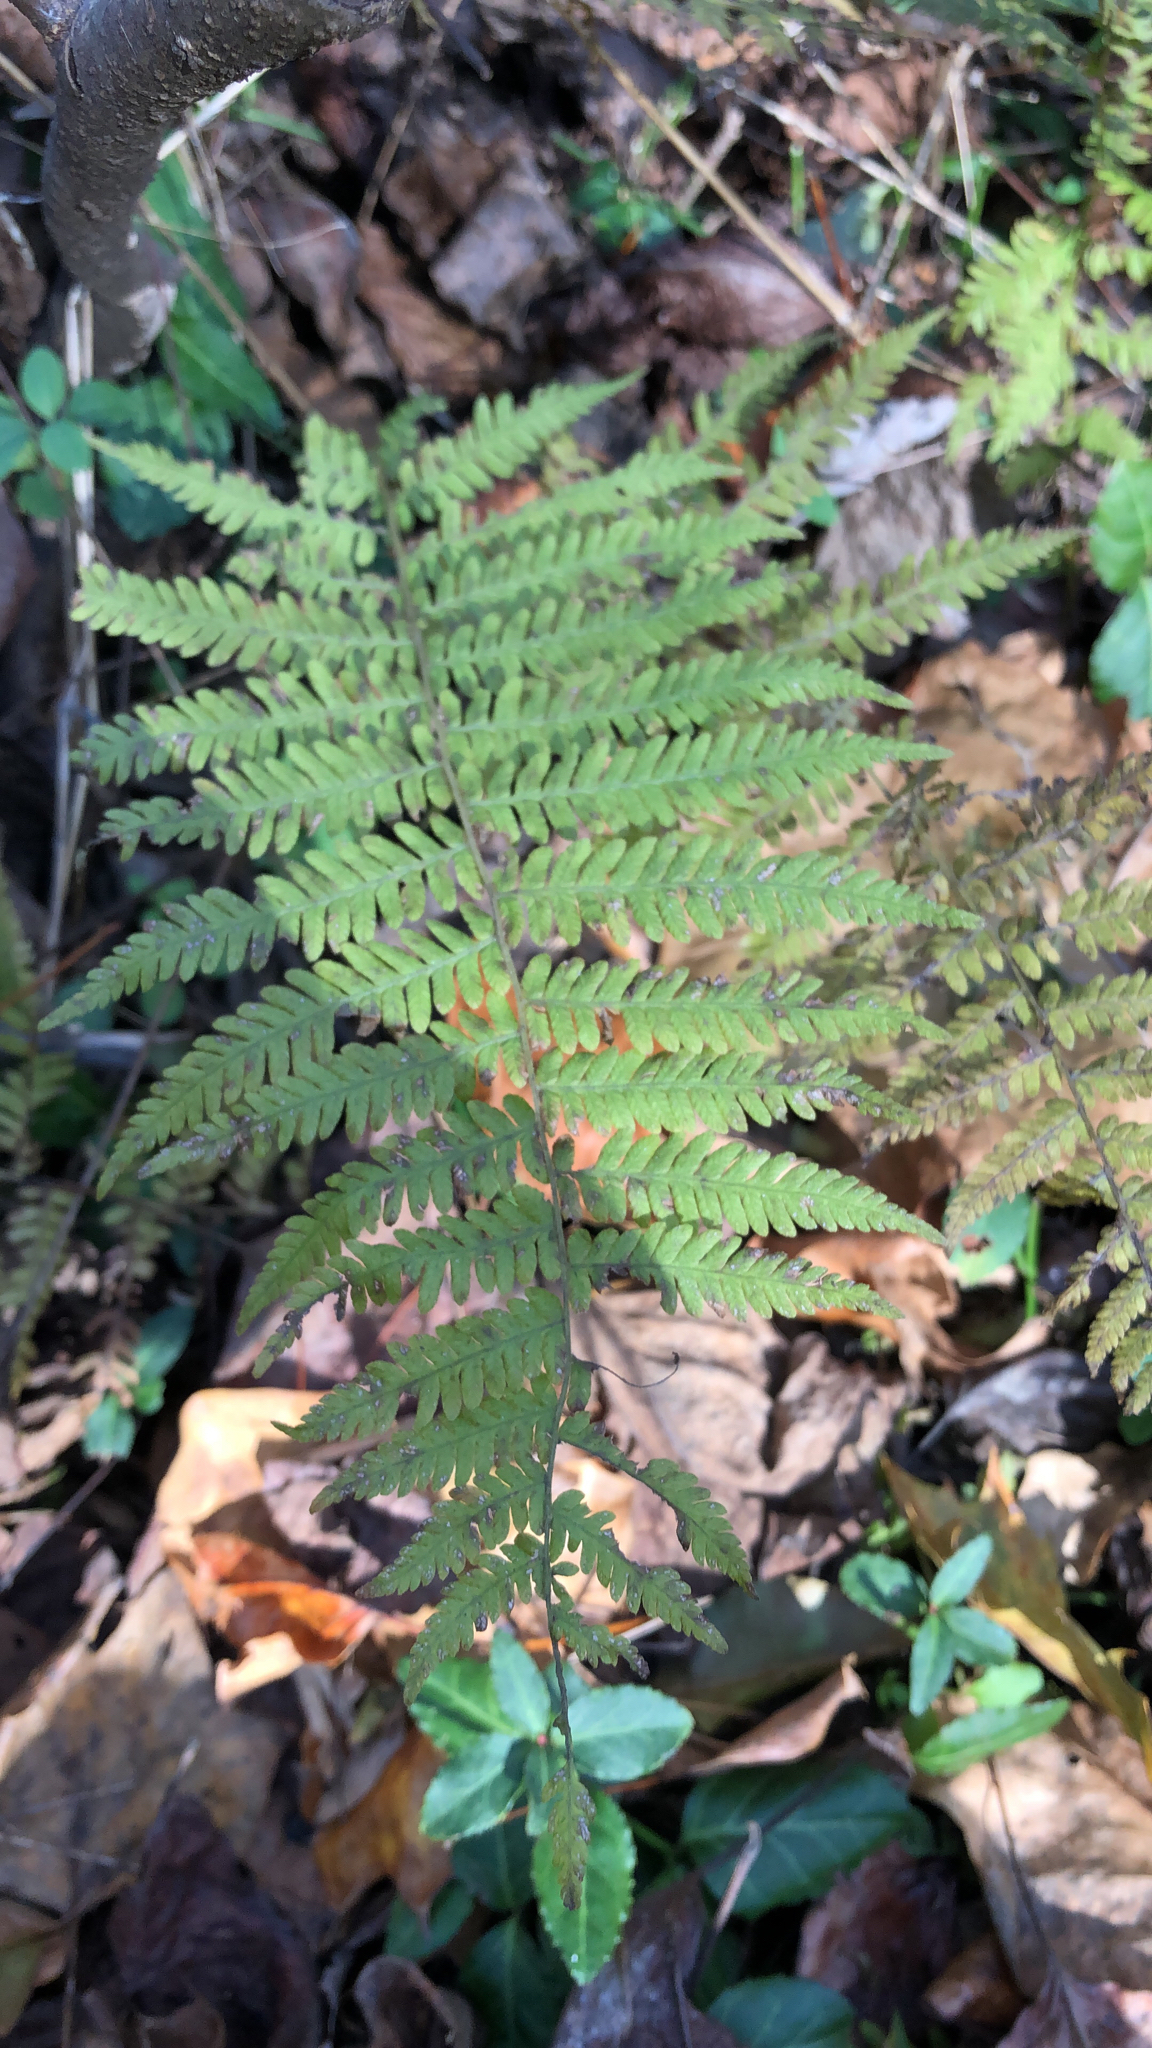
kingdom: Plantae
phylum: Tracheophyta
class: Polypodiopsida
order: Polypodiales
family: Thelypteridaceae
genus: Amauropelta
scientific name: Amauropelta noveboracensis
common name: New york fern
